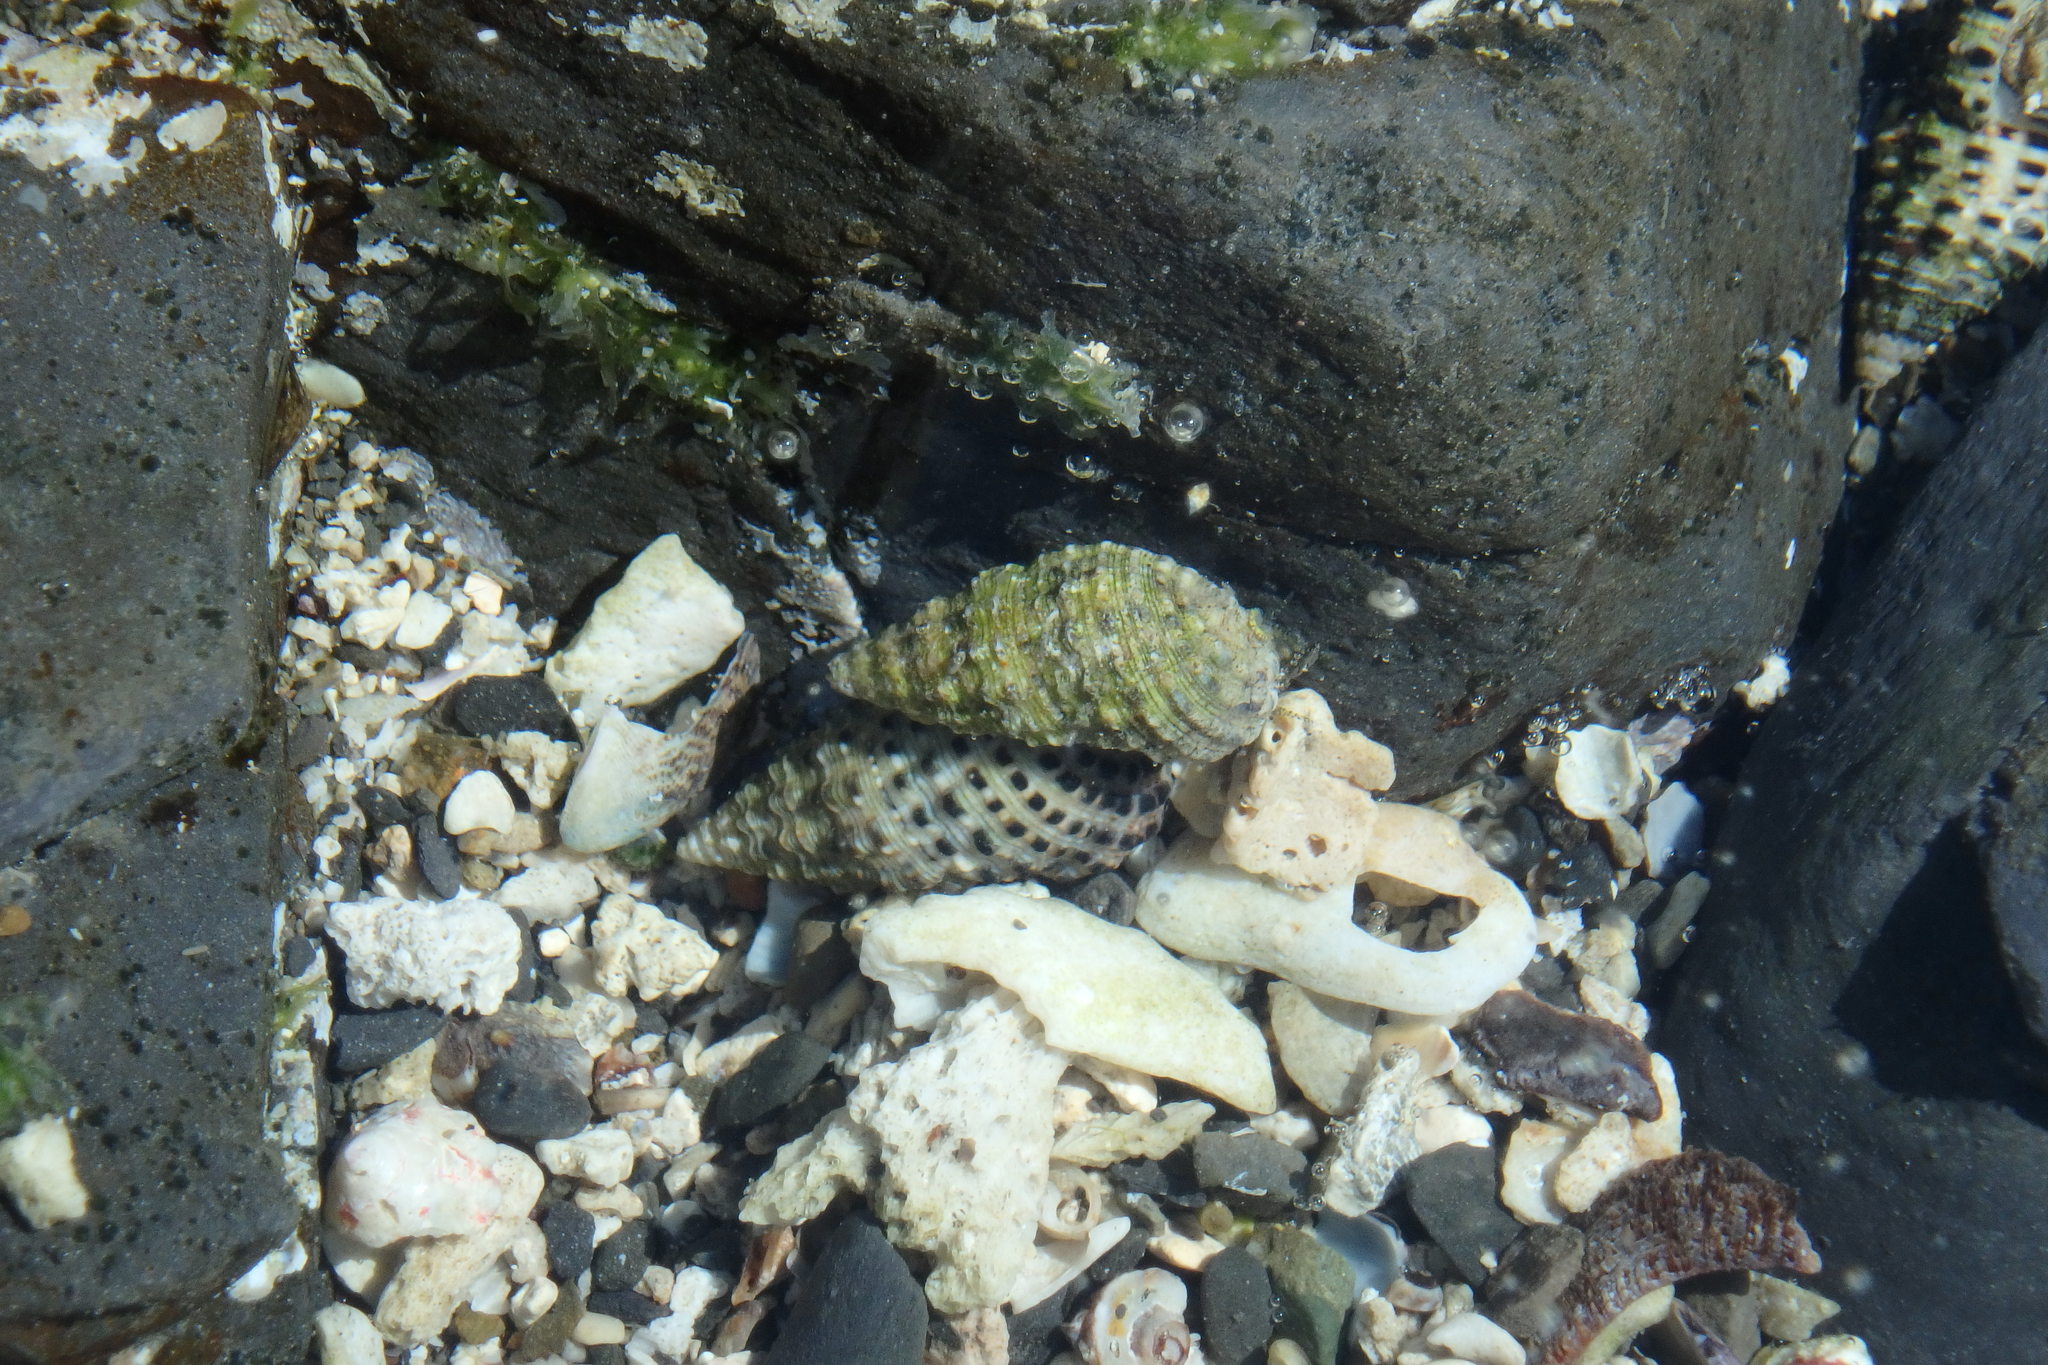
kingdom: Animalia
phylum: Mollusca
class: Gastropoda
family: Cerithiidae
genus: Clypeomorus
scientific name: Clypeomorus bifasciata
